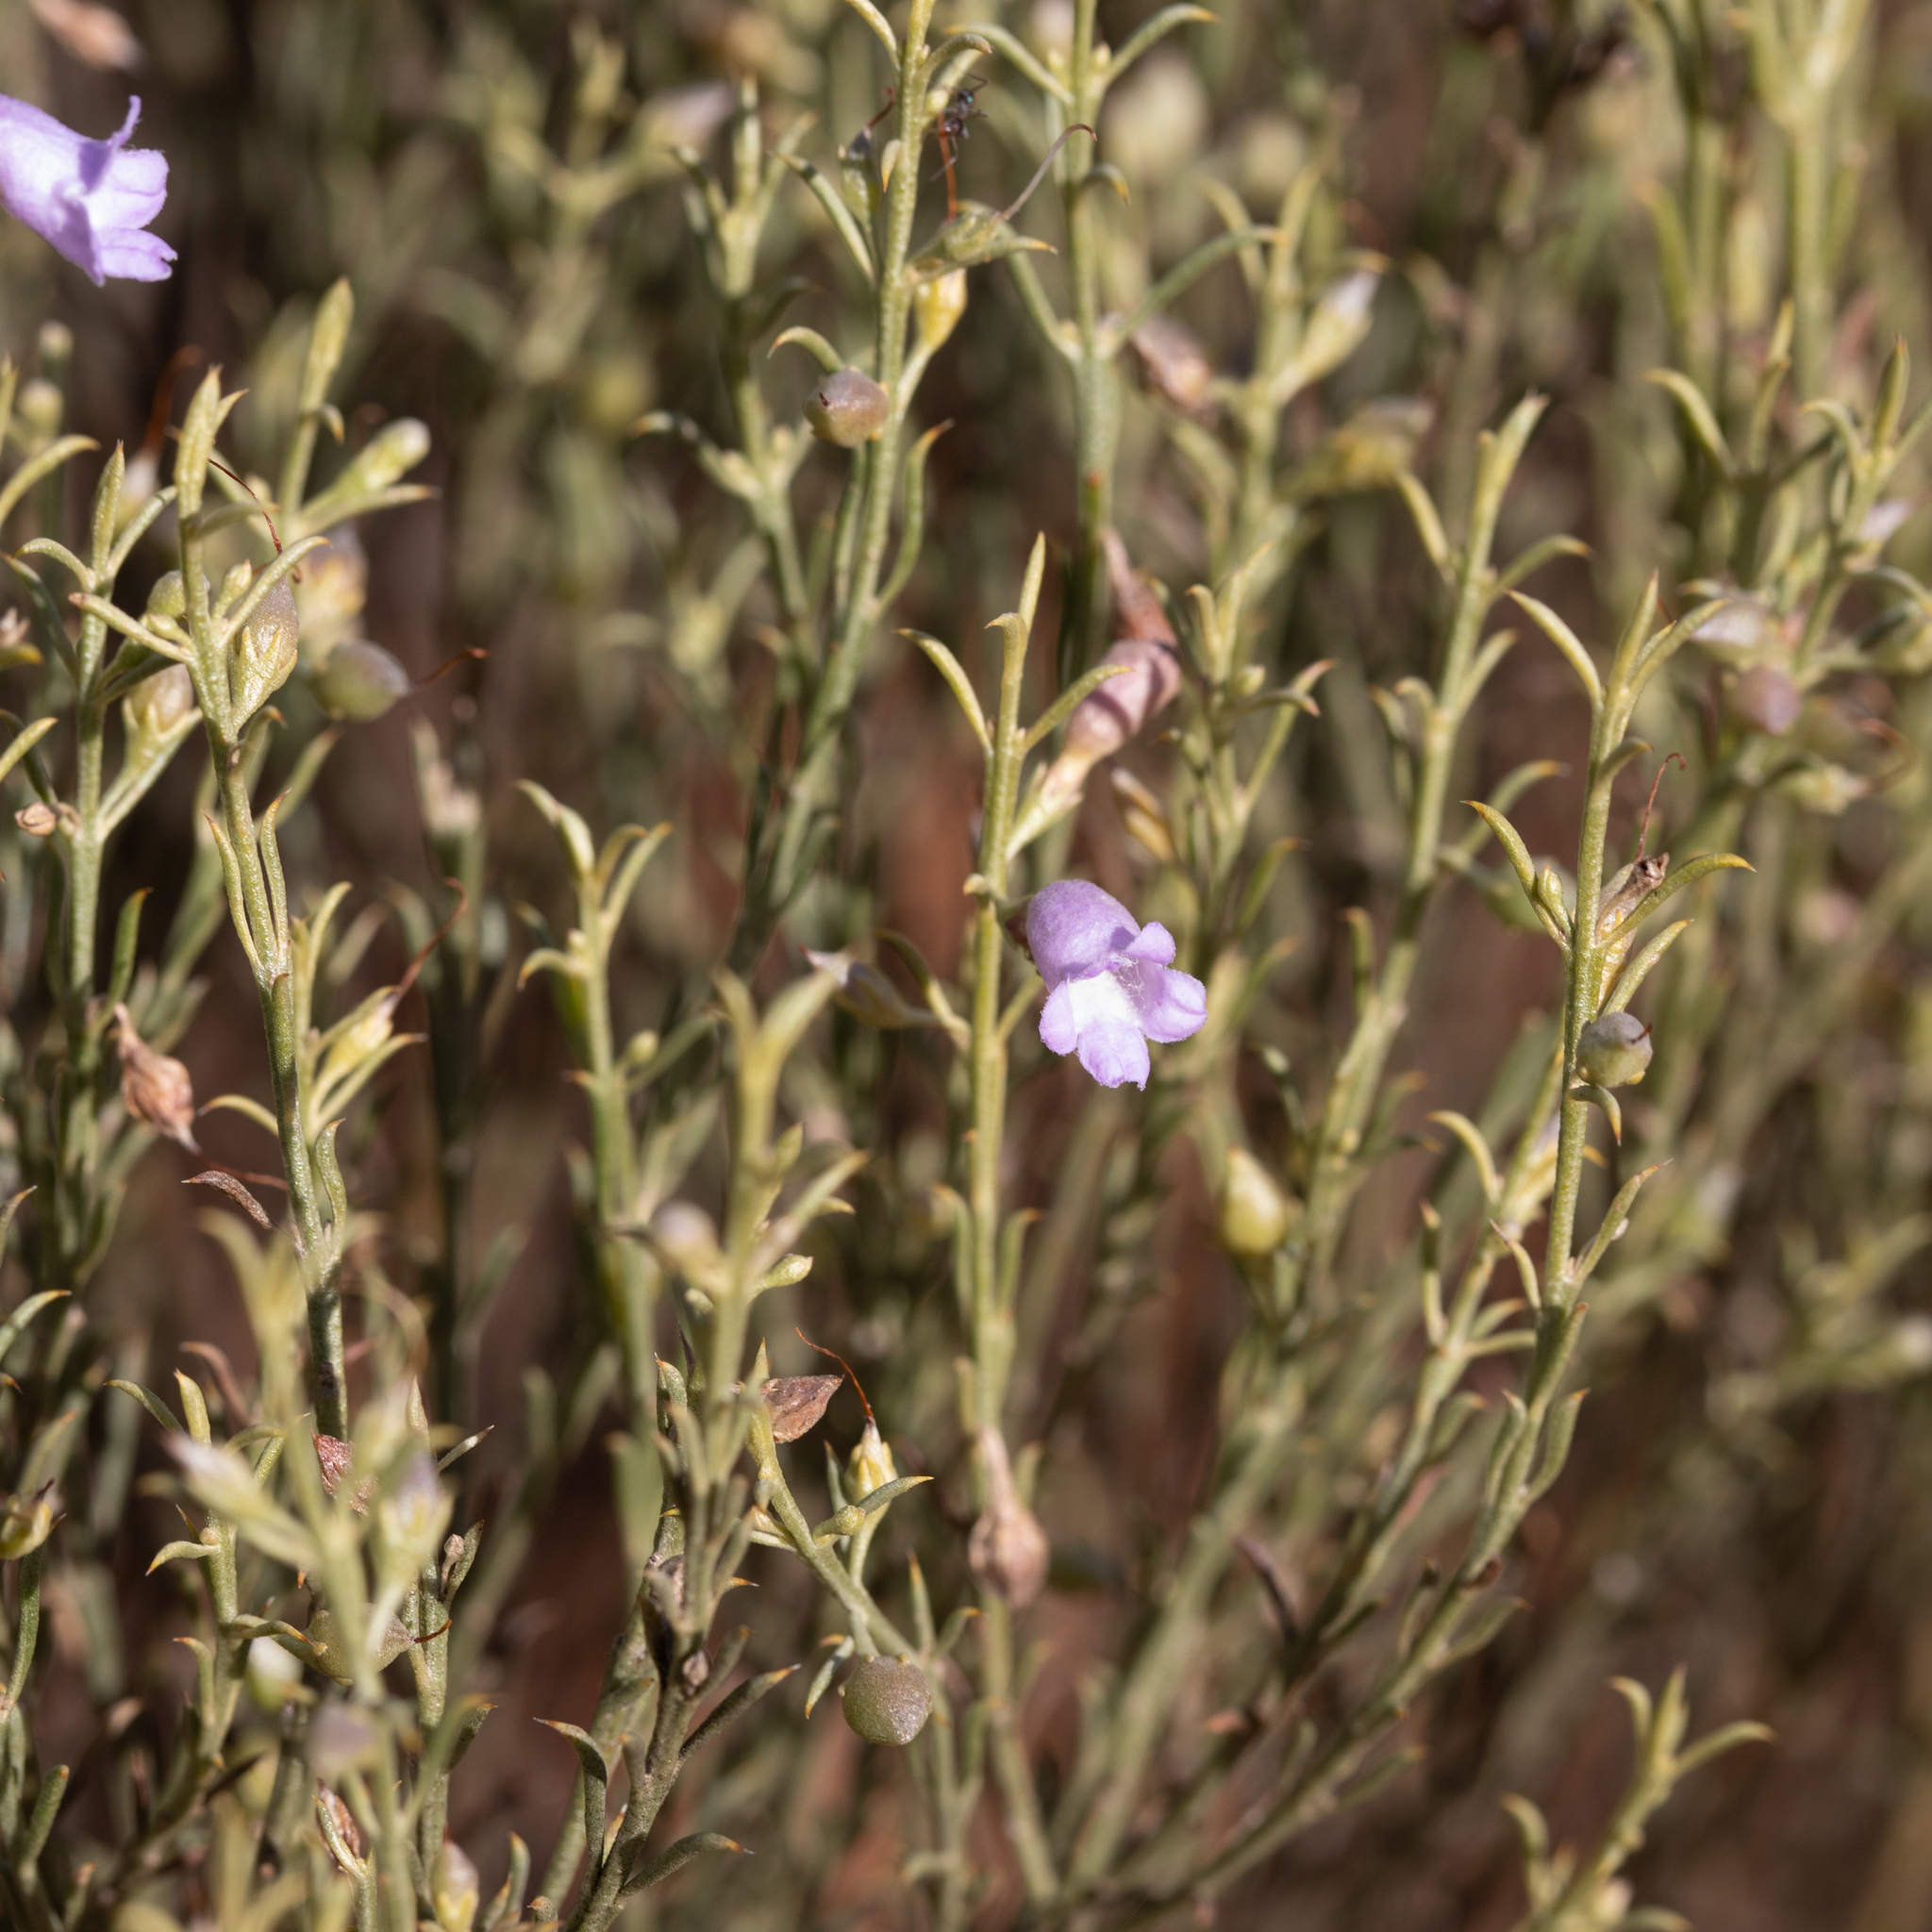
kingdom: Plantae
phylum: Tracheophyta
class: Magnoliopsida
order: Lamiales
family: Scrophulariaceae
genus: Eremophila
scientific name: Eremophila scoparia
